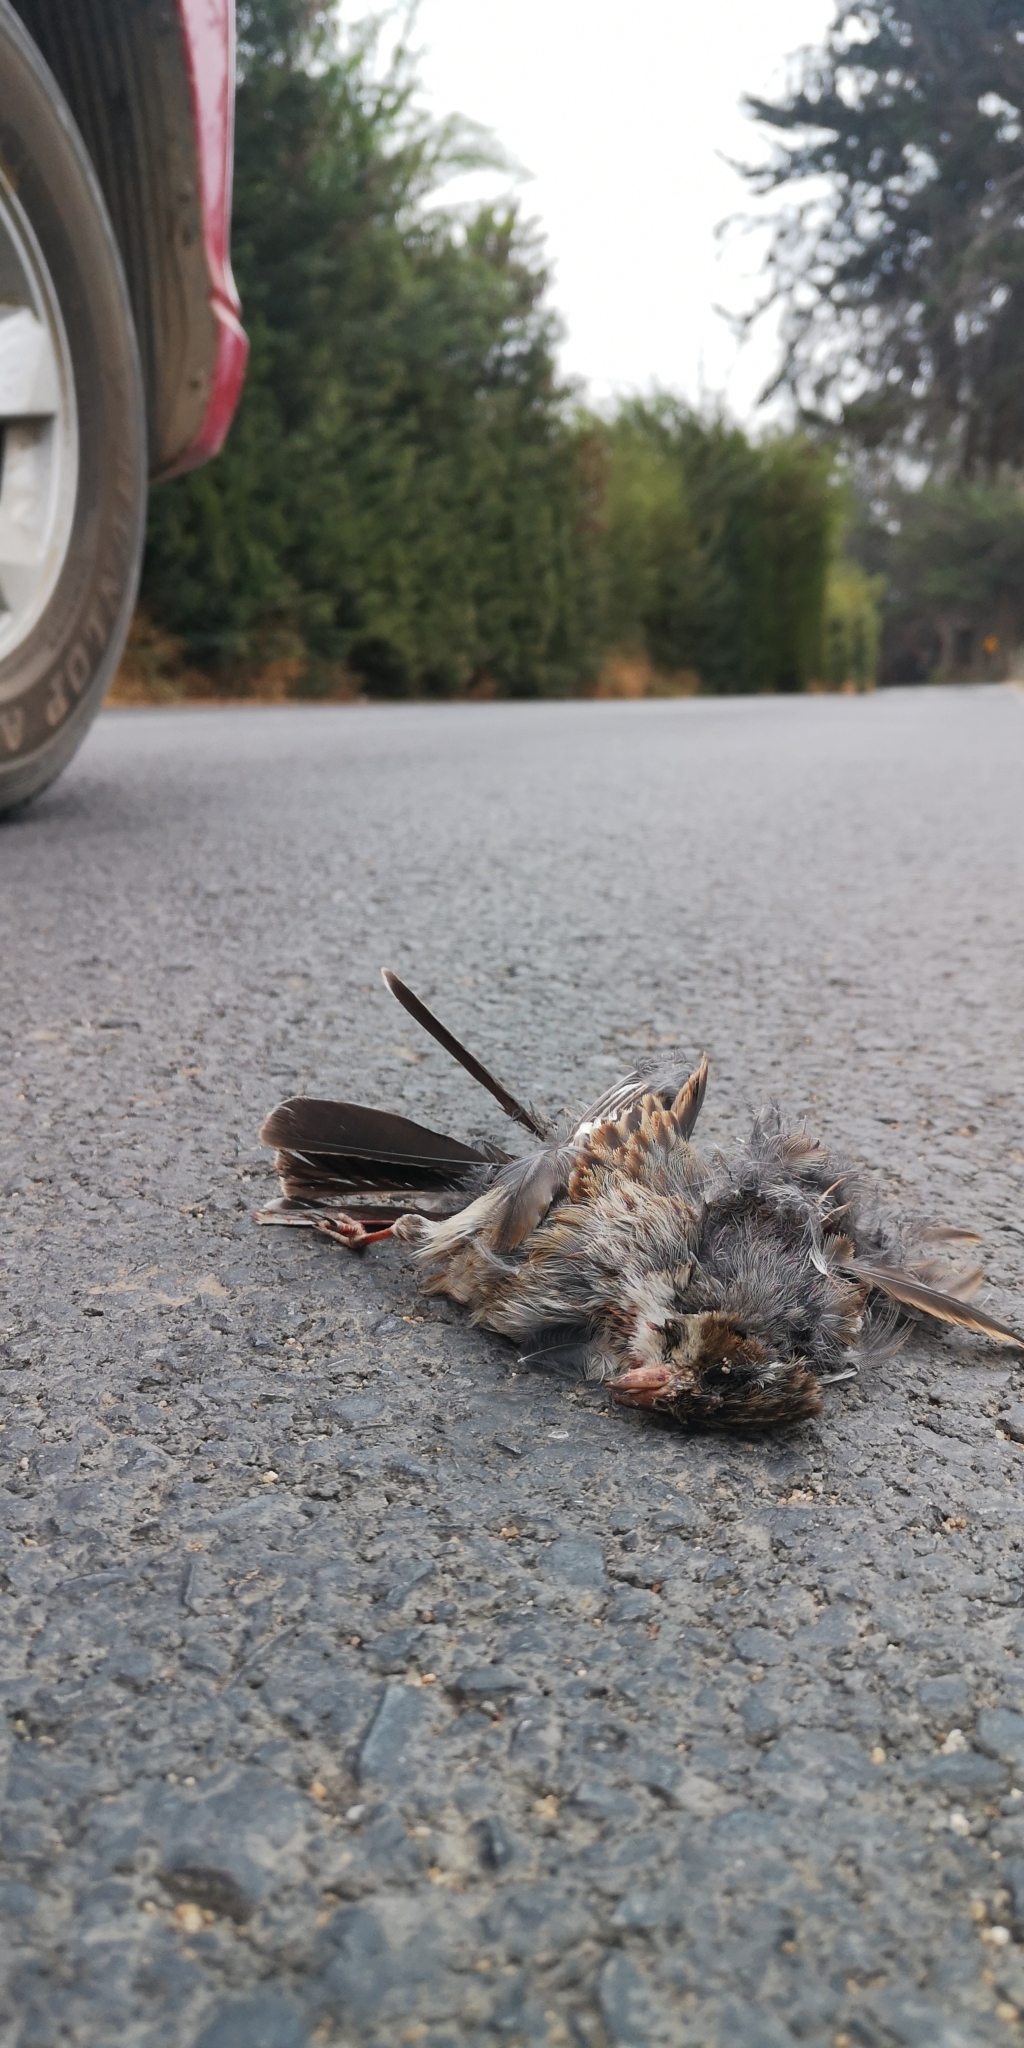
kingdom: Animalia
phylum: Chordata
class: Aves
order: Passeriformes
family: Thraupidae
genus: Rhopospina
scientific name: Rhopospina fruticeti
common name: Mourning sierra finch
